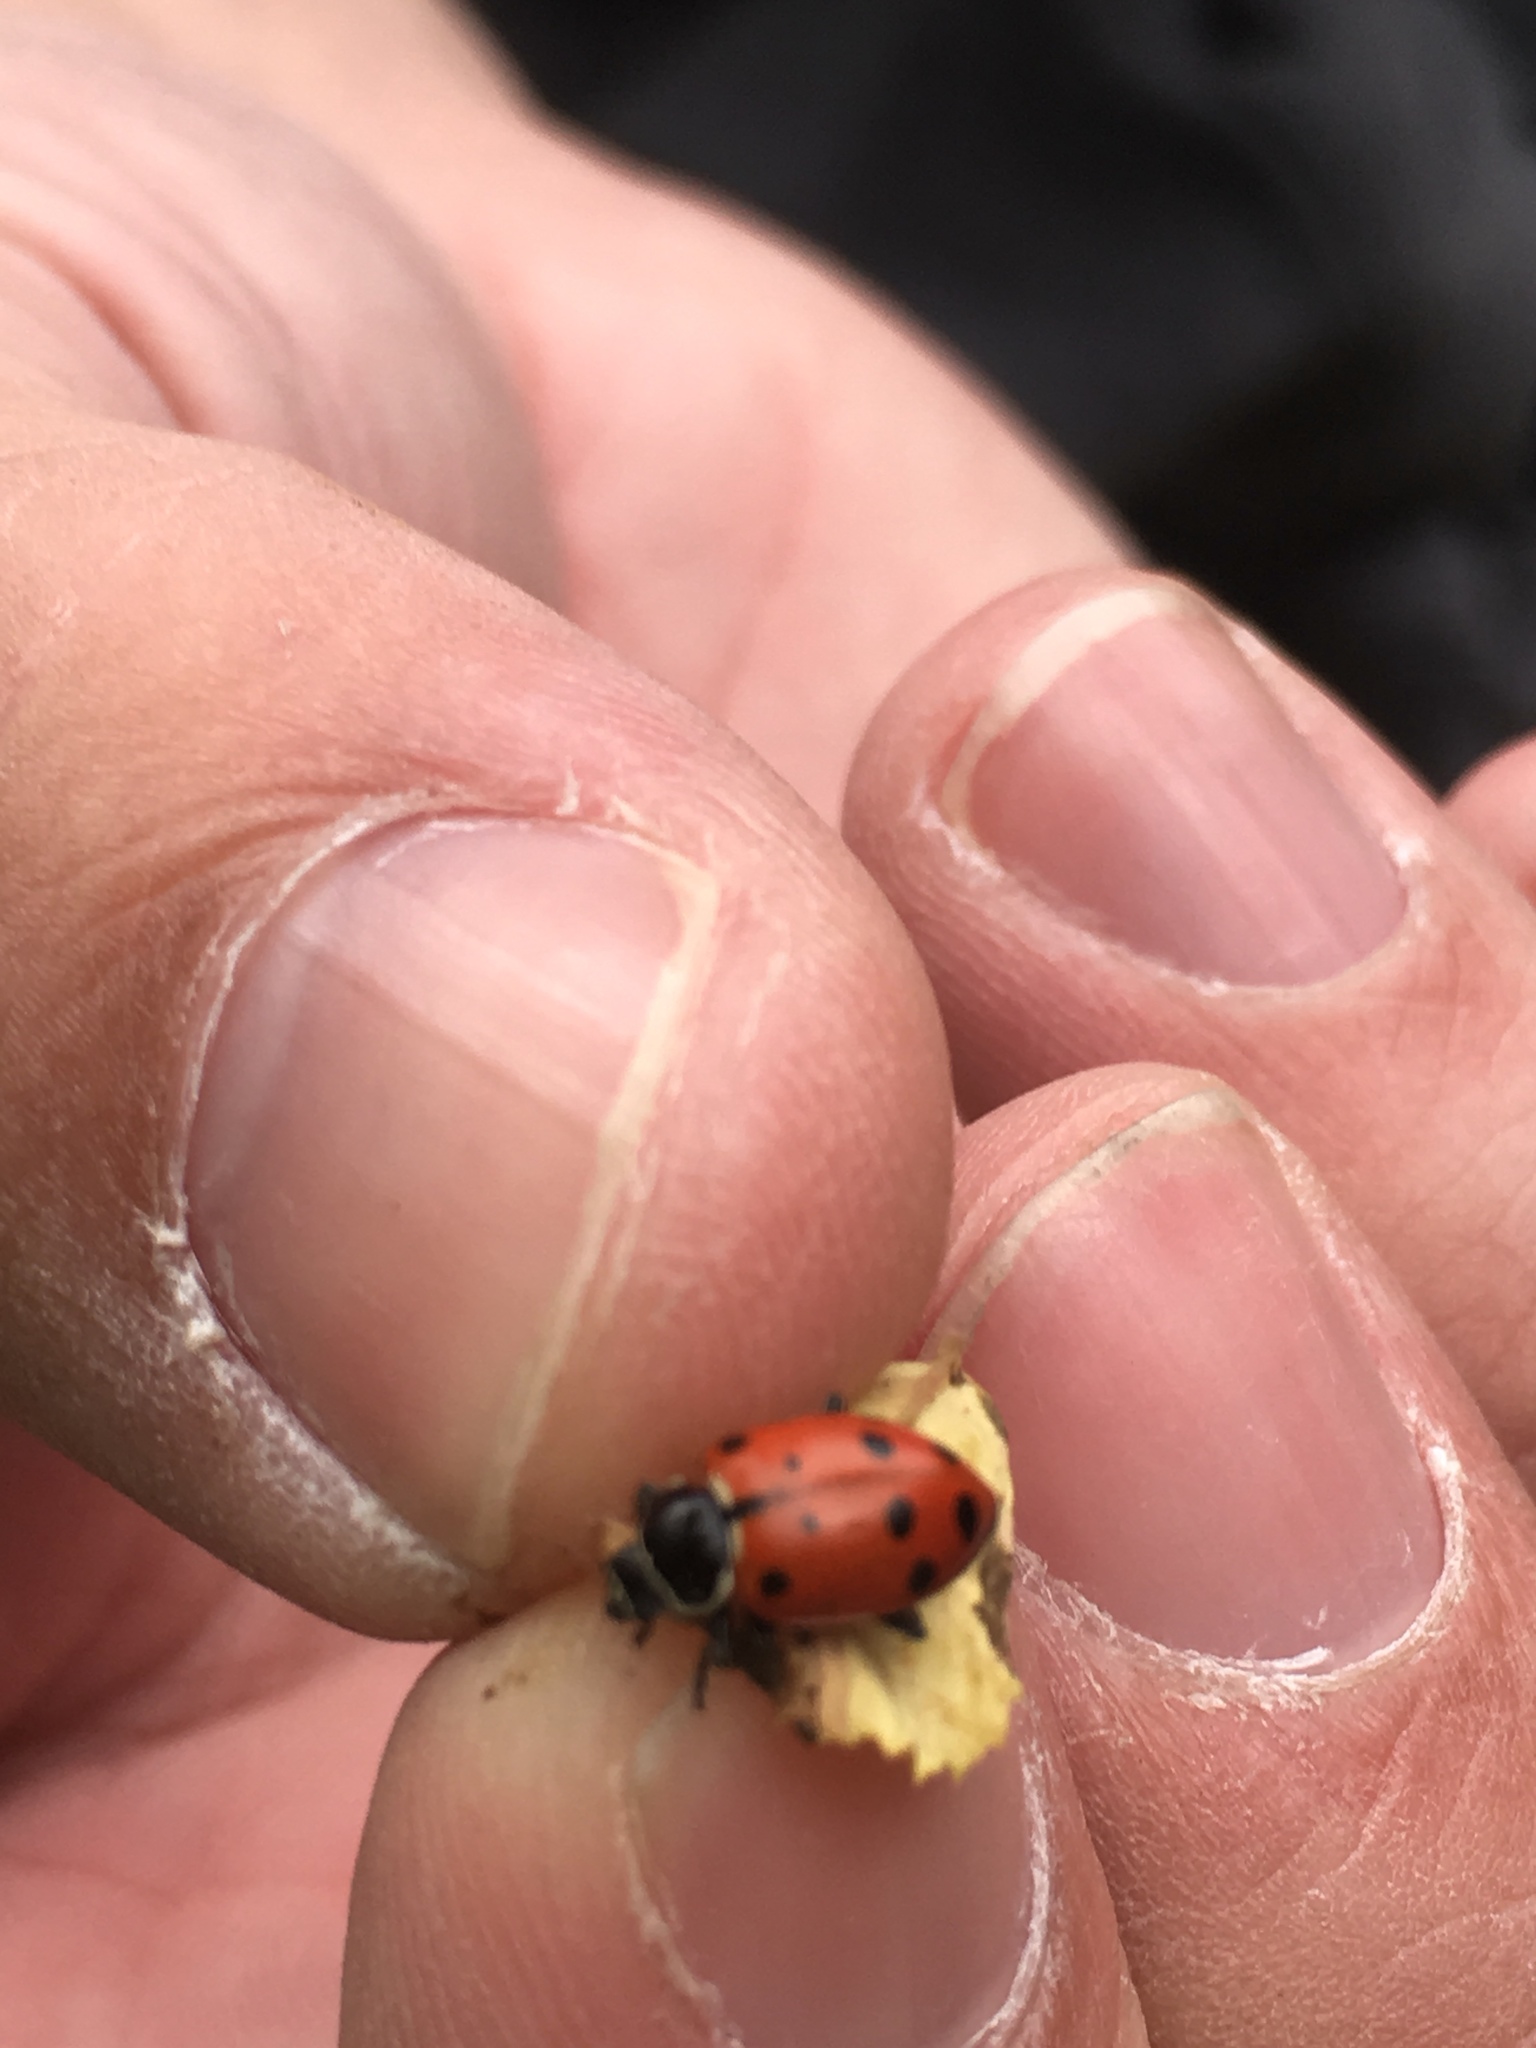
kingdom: Animalia
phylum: Arthropoda
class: Insecta
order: Coleoptera
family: Coccinellidae
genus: Hippodamia
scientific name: Hippodamia convergens
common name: Convergent lady beetle
